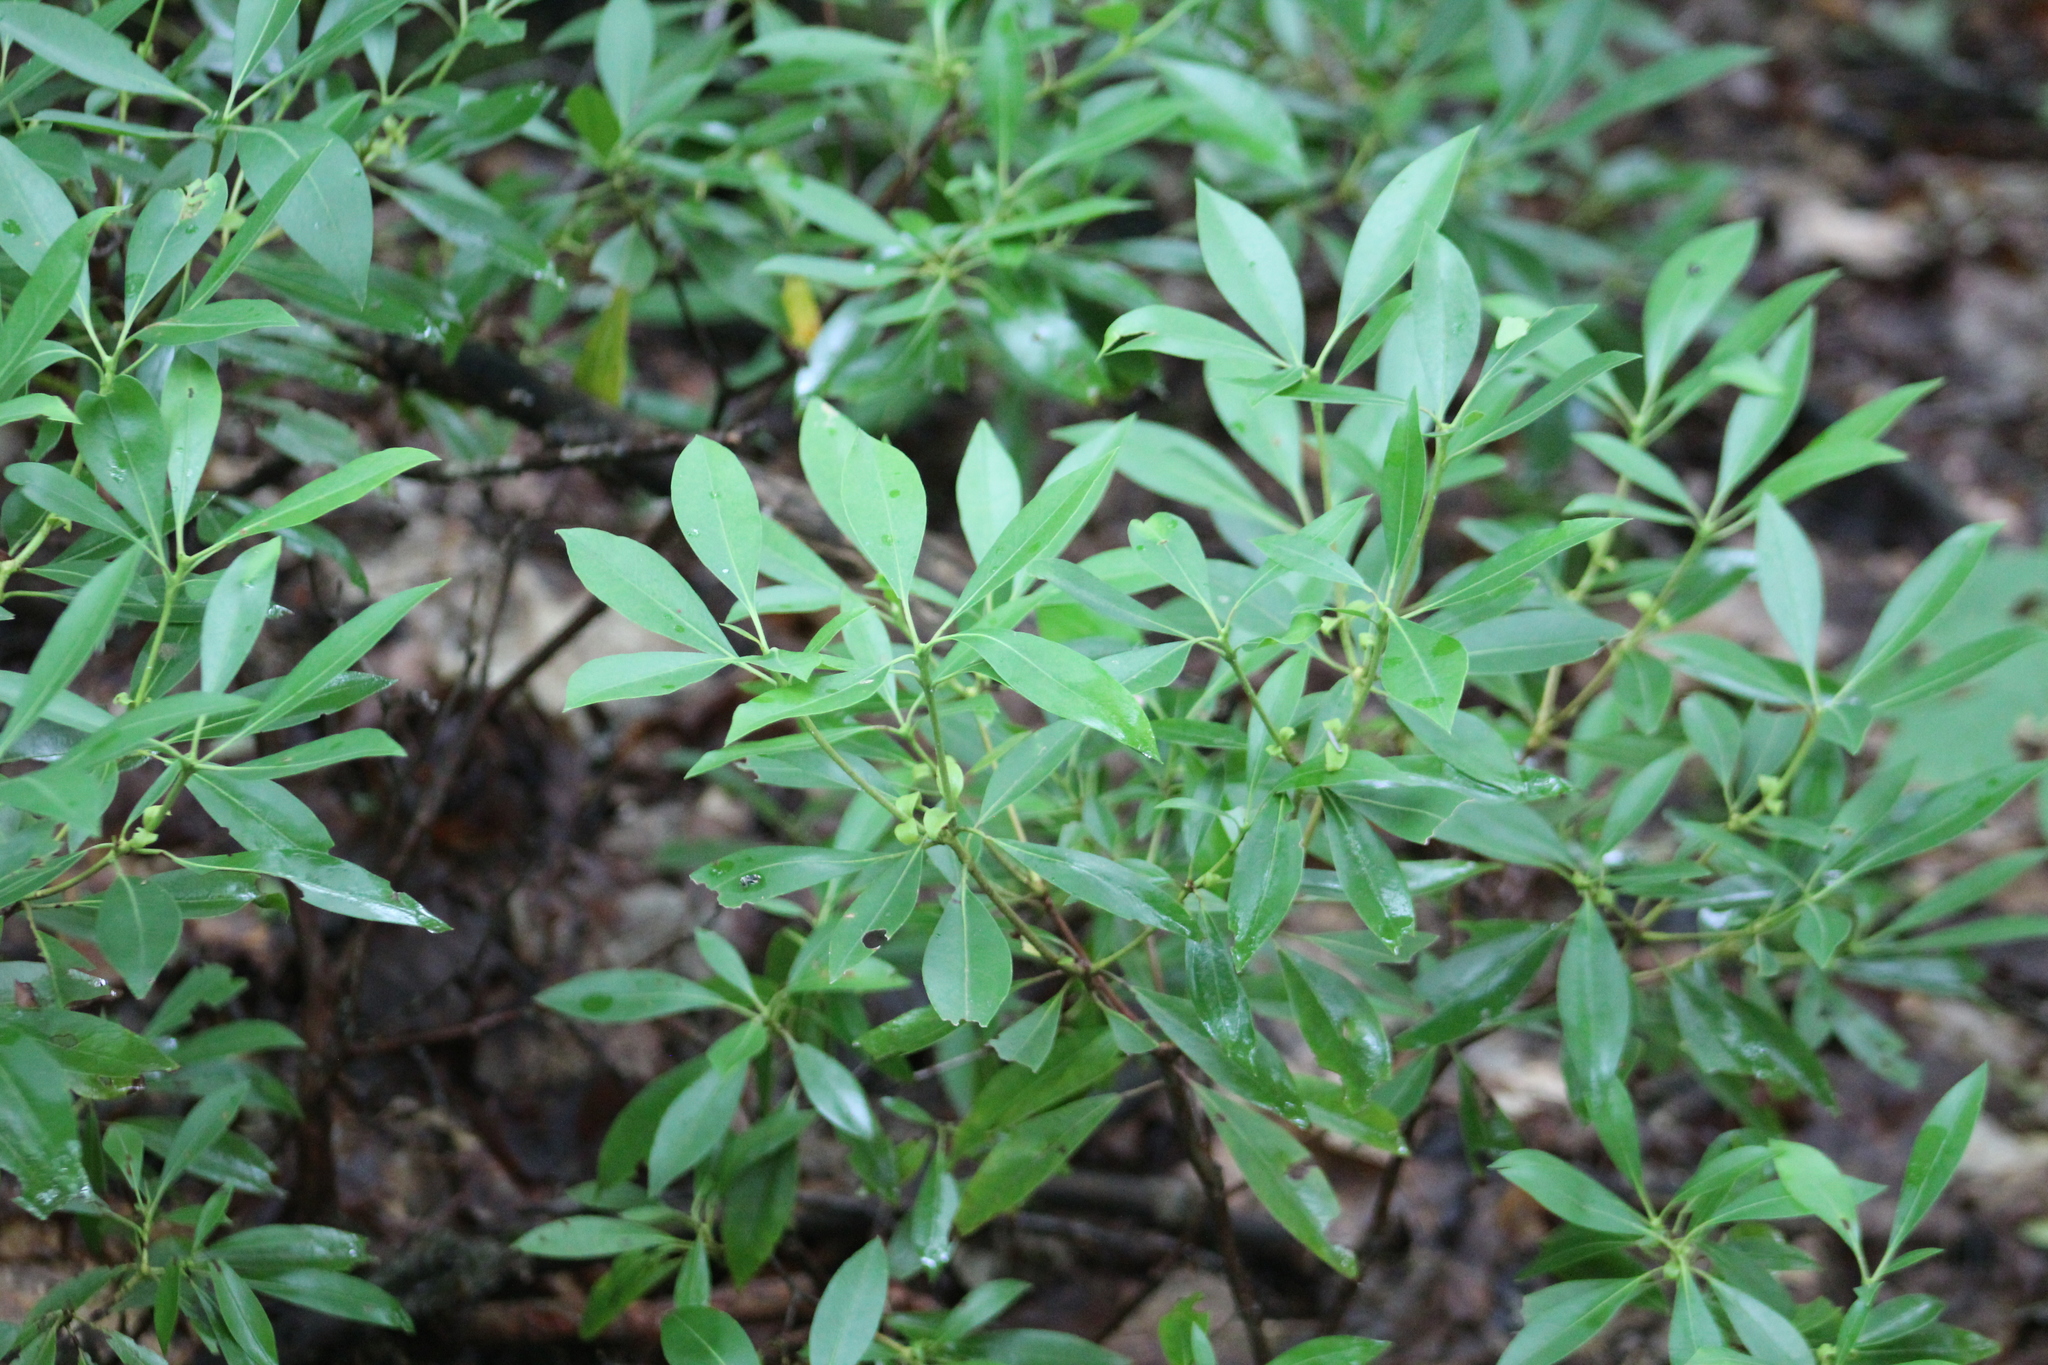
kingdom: Plantae
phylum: Tracheophyta
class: Magnoliopsida
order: Ericales
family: Ericaceae
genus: Kalmia
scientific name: Kalmia latifolia
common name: Mountain-laurel
